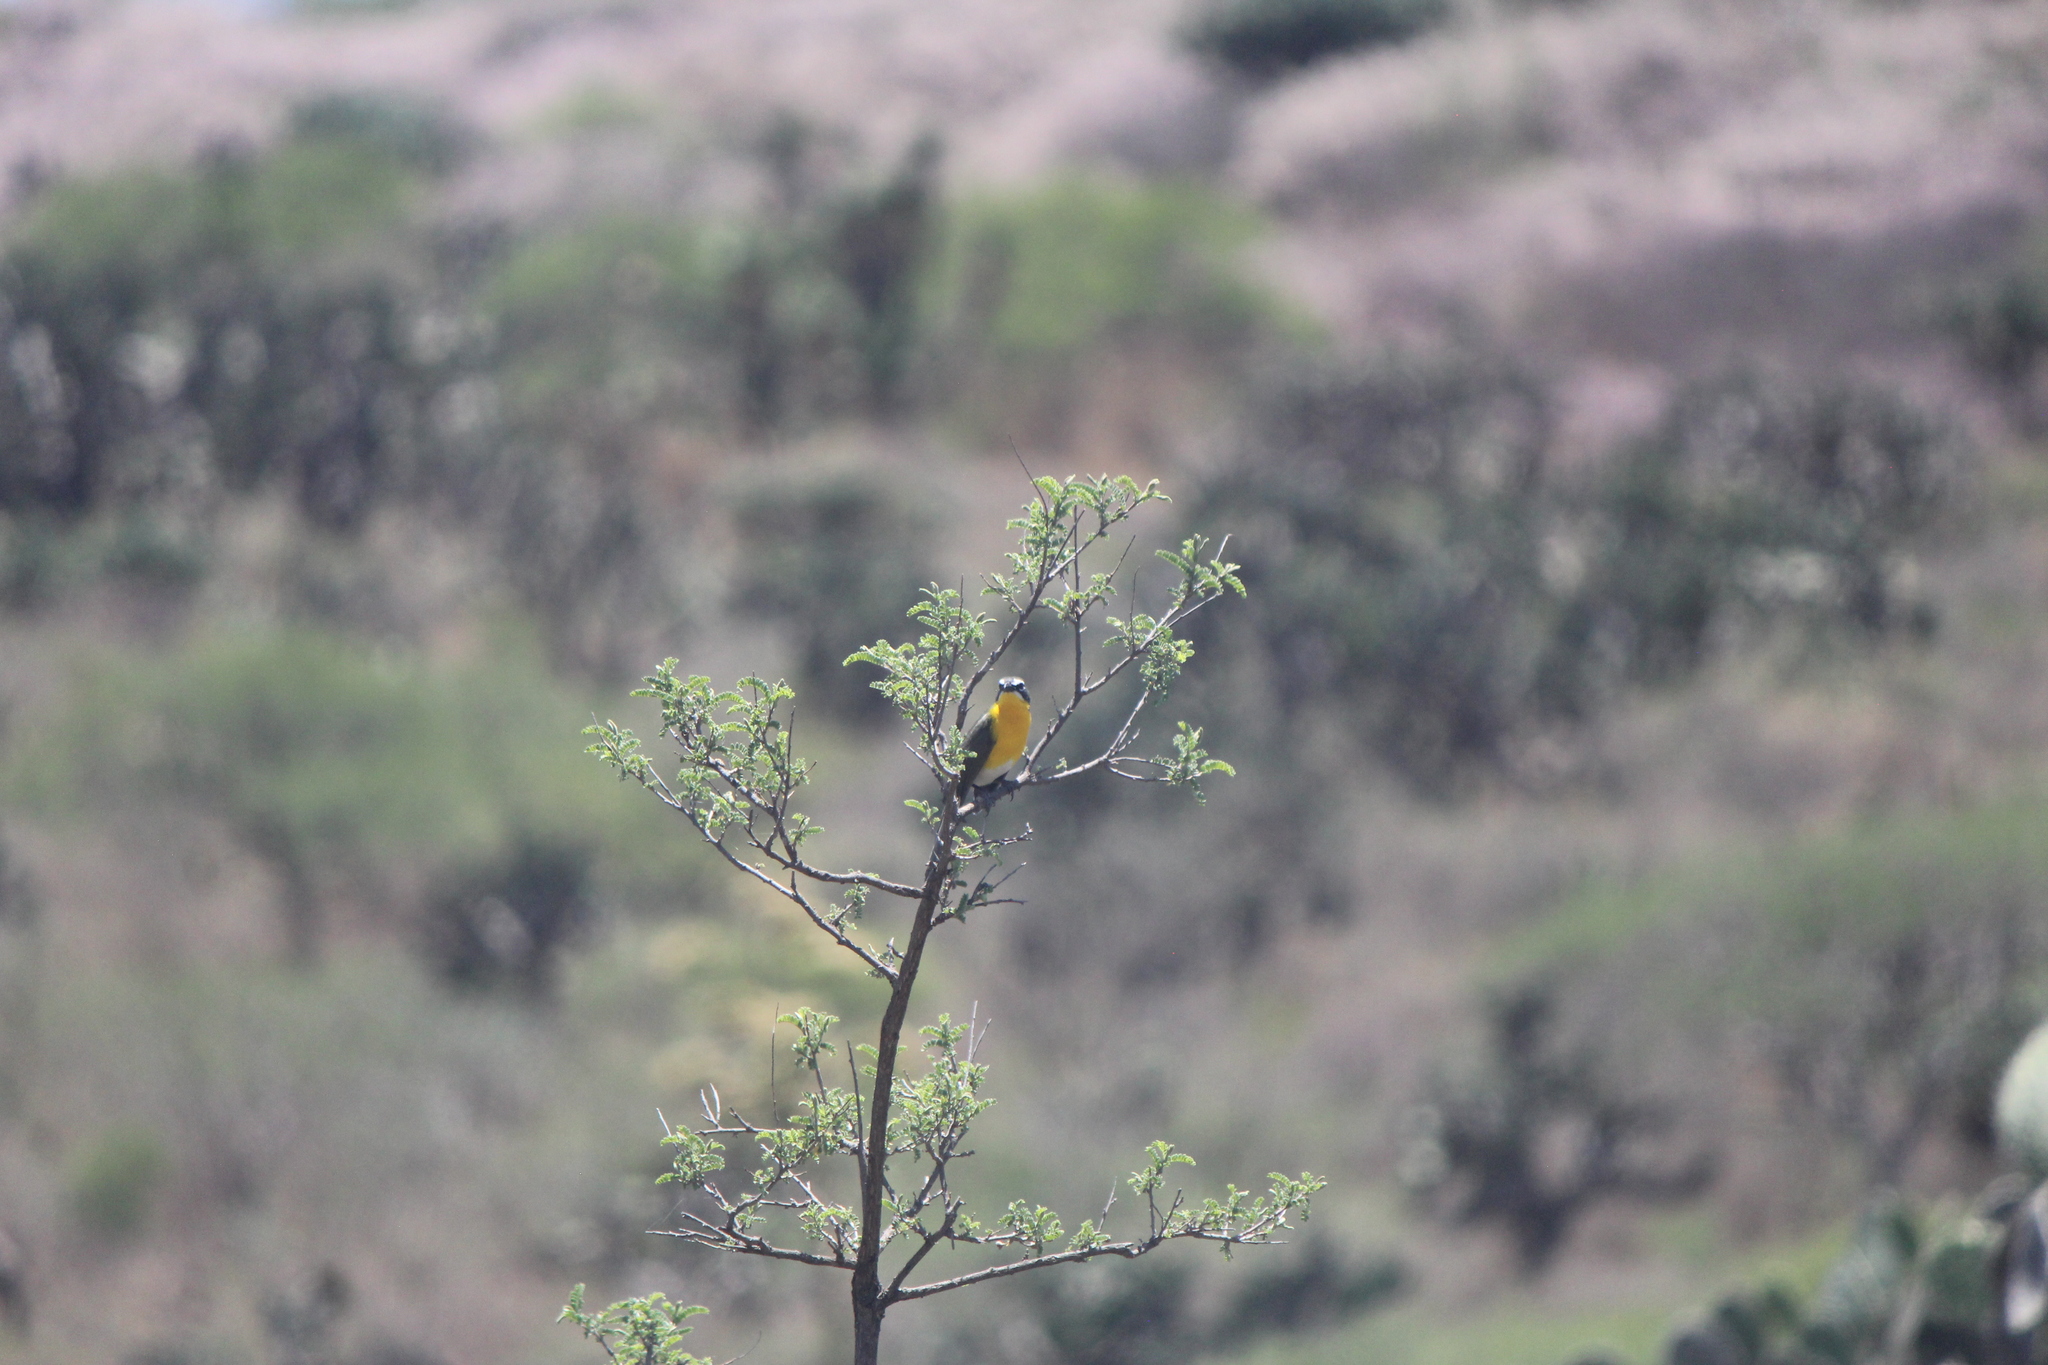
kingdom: Animalia
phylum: Chordata
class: Aves
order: Passeriformes
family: Parulidae
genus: Icteria
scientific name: Icteria virens
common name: Yellow-breasted chat
